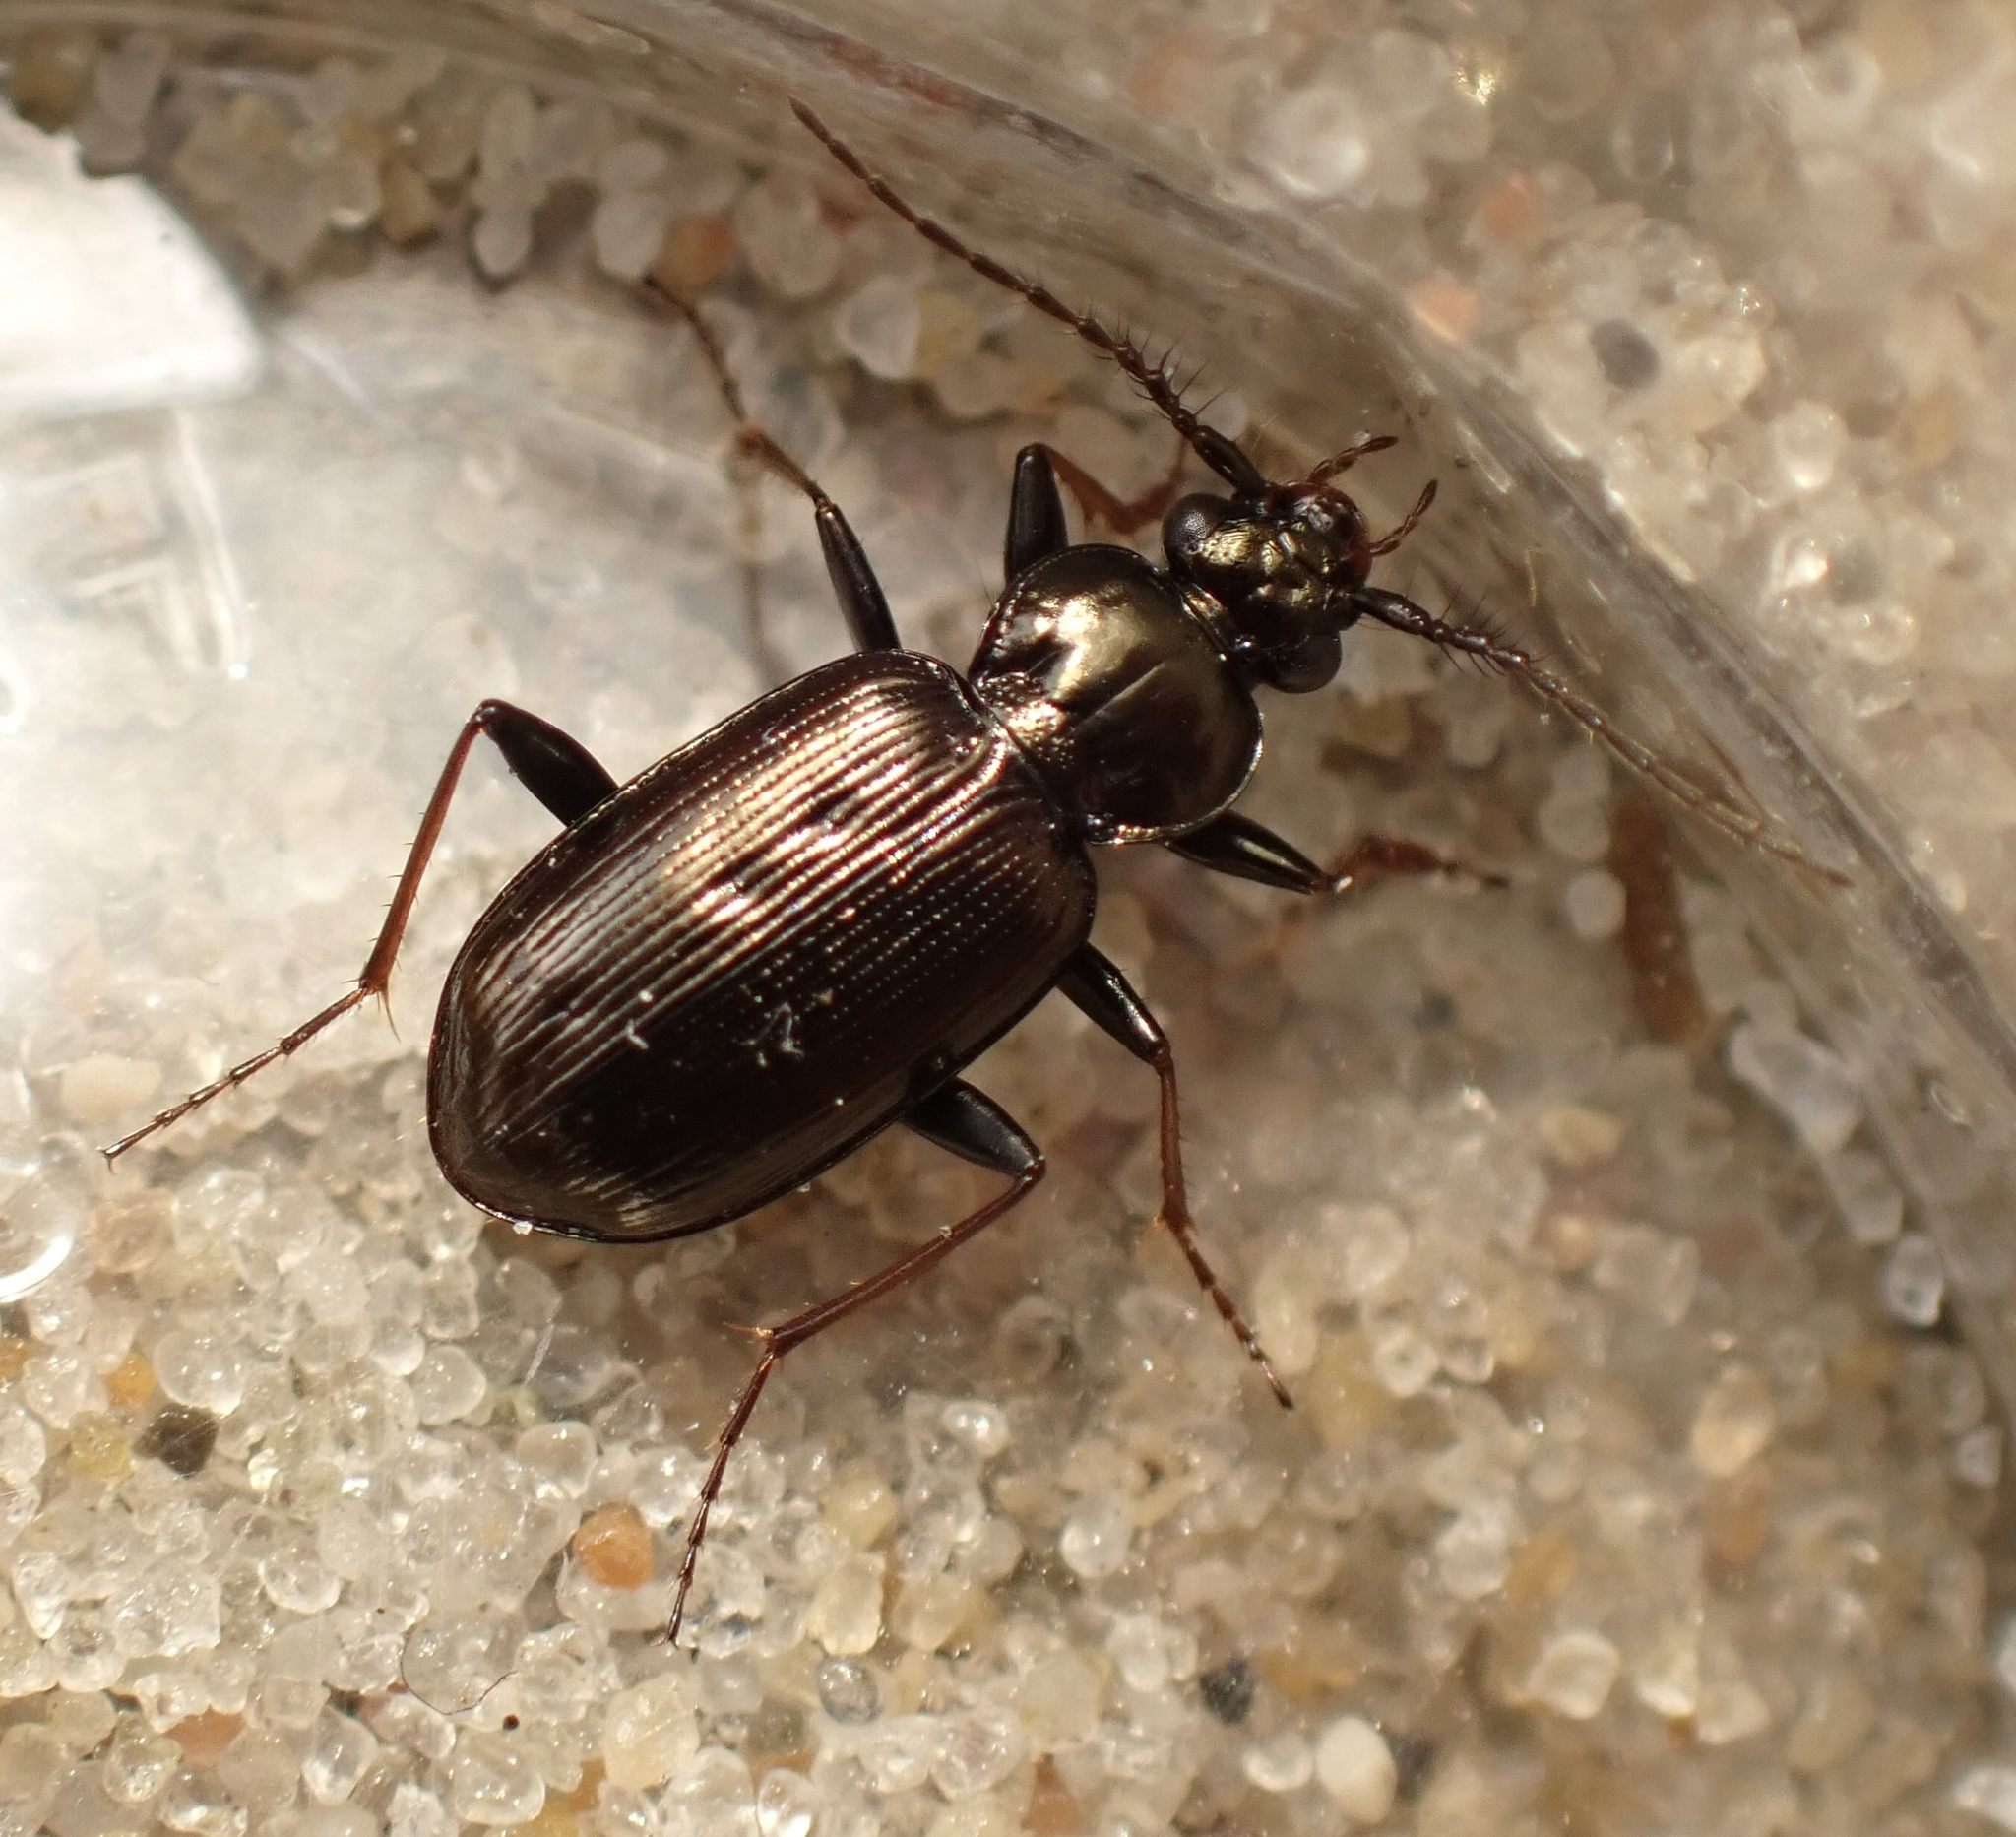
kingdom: Animalia
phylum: Arthropoda
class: Insecta
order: Coleoptera
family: Carabidae
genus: Loricera
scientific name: Loricera pilicornis
